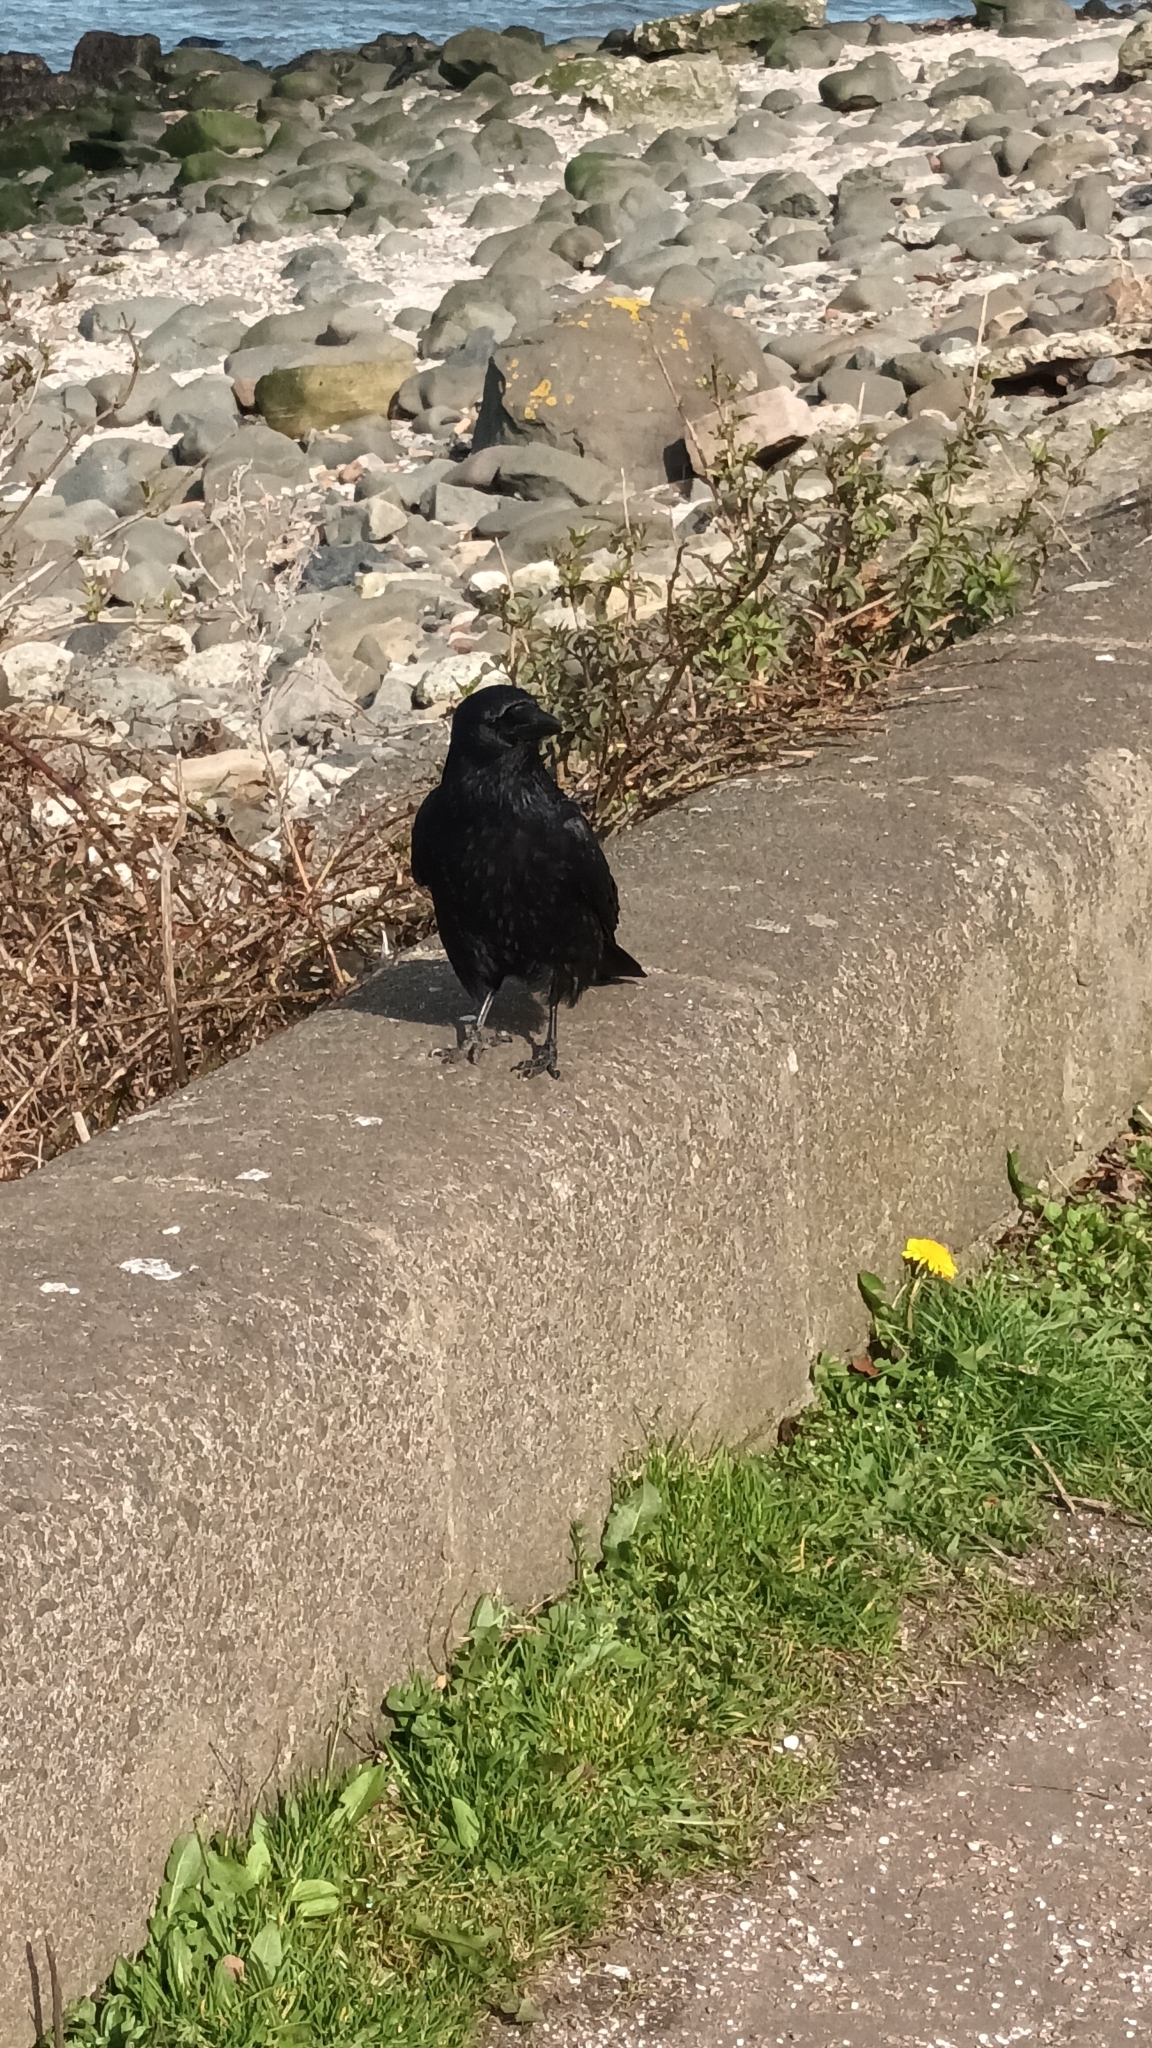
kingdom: Animalia
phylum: Chordata
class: Aves
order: Passeriformes
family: Corvidae
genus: Corvus
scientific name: Corvus corone
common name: Carrion crow
